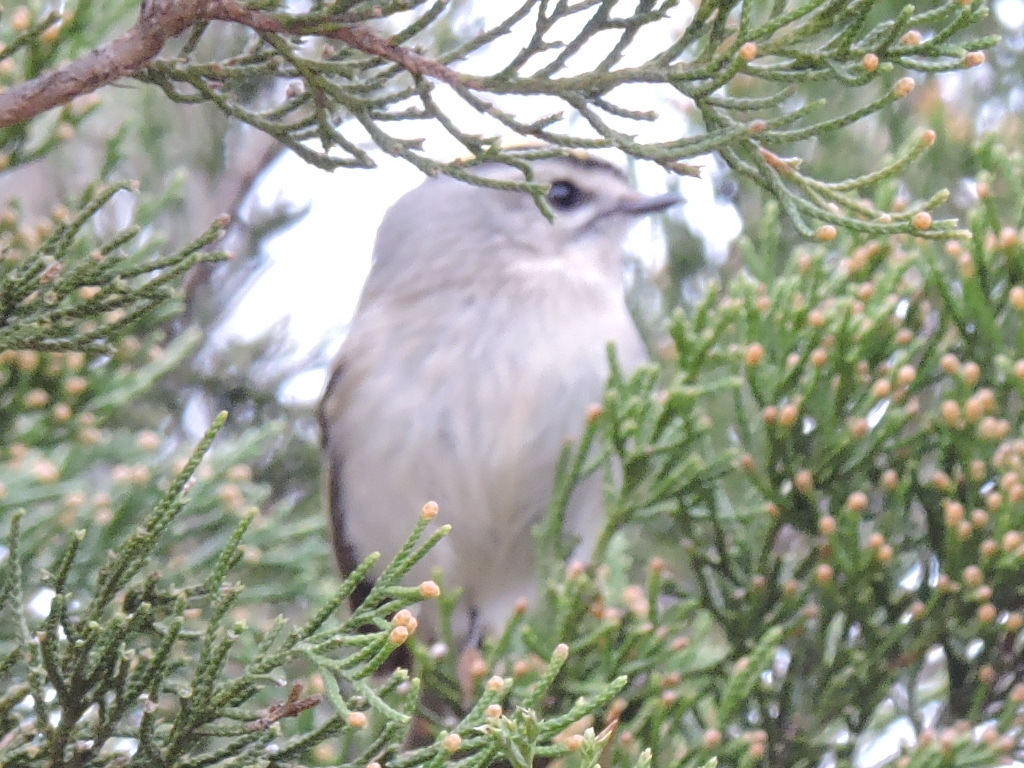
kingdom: Animalia
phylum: Chordata
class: Aves
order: Passeriformes
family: Regulidae
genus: Regulus
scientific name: Regulus satrapa
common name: Golden-crowned kinglet
